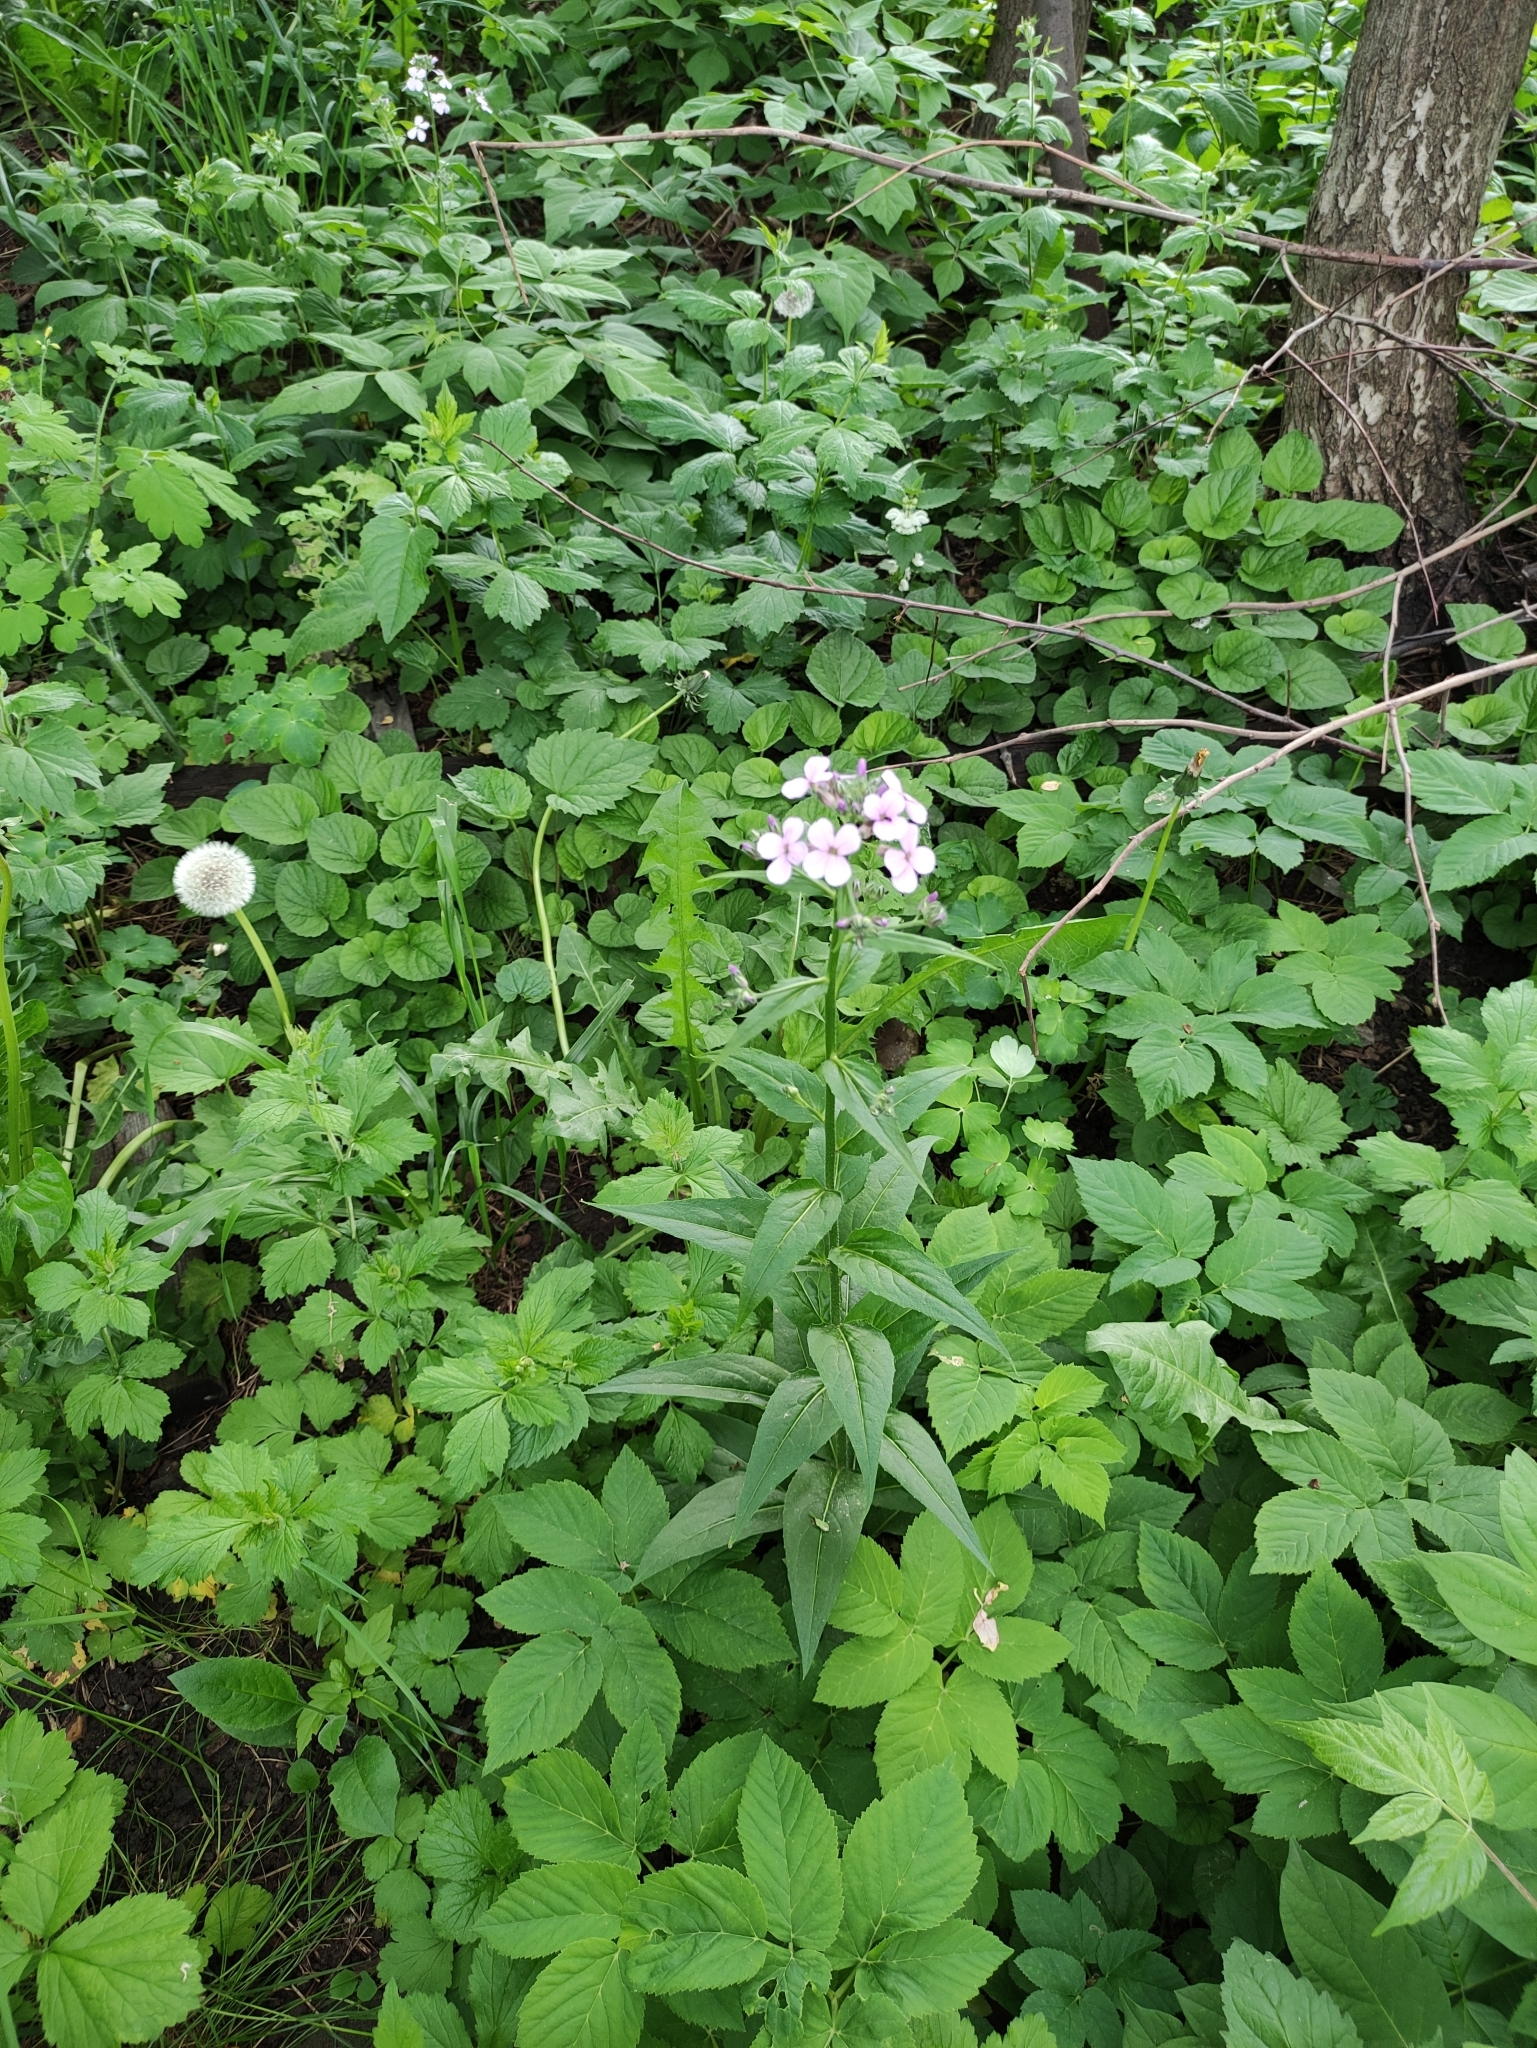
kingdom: Plantae
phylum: Tracheophyta
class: Magnoliopsida
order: Brassicales
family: Brassicaceae
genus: Hesperis
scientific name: Hesperis matronalis
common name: Dame's-violet
